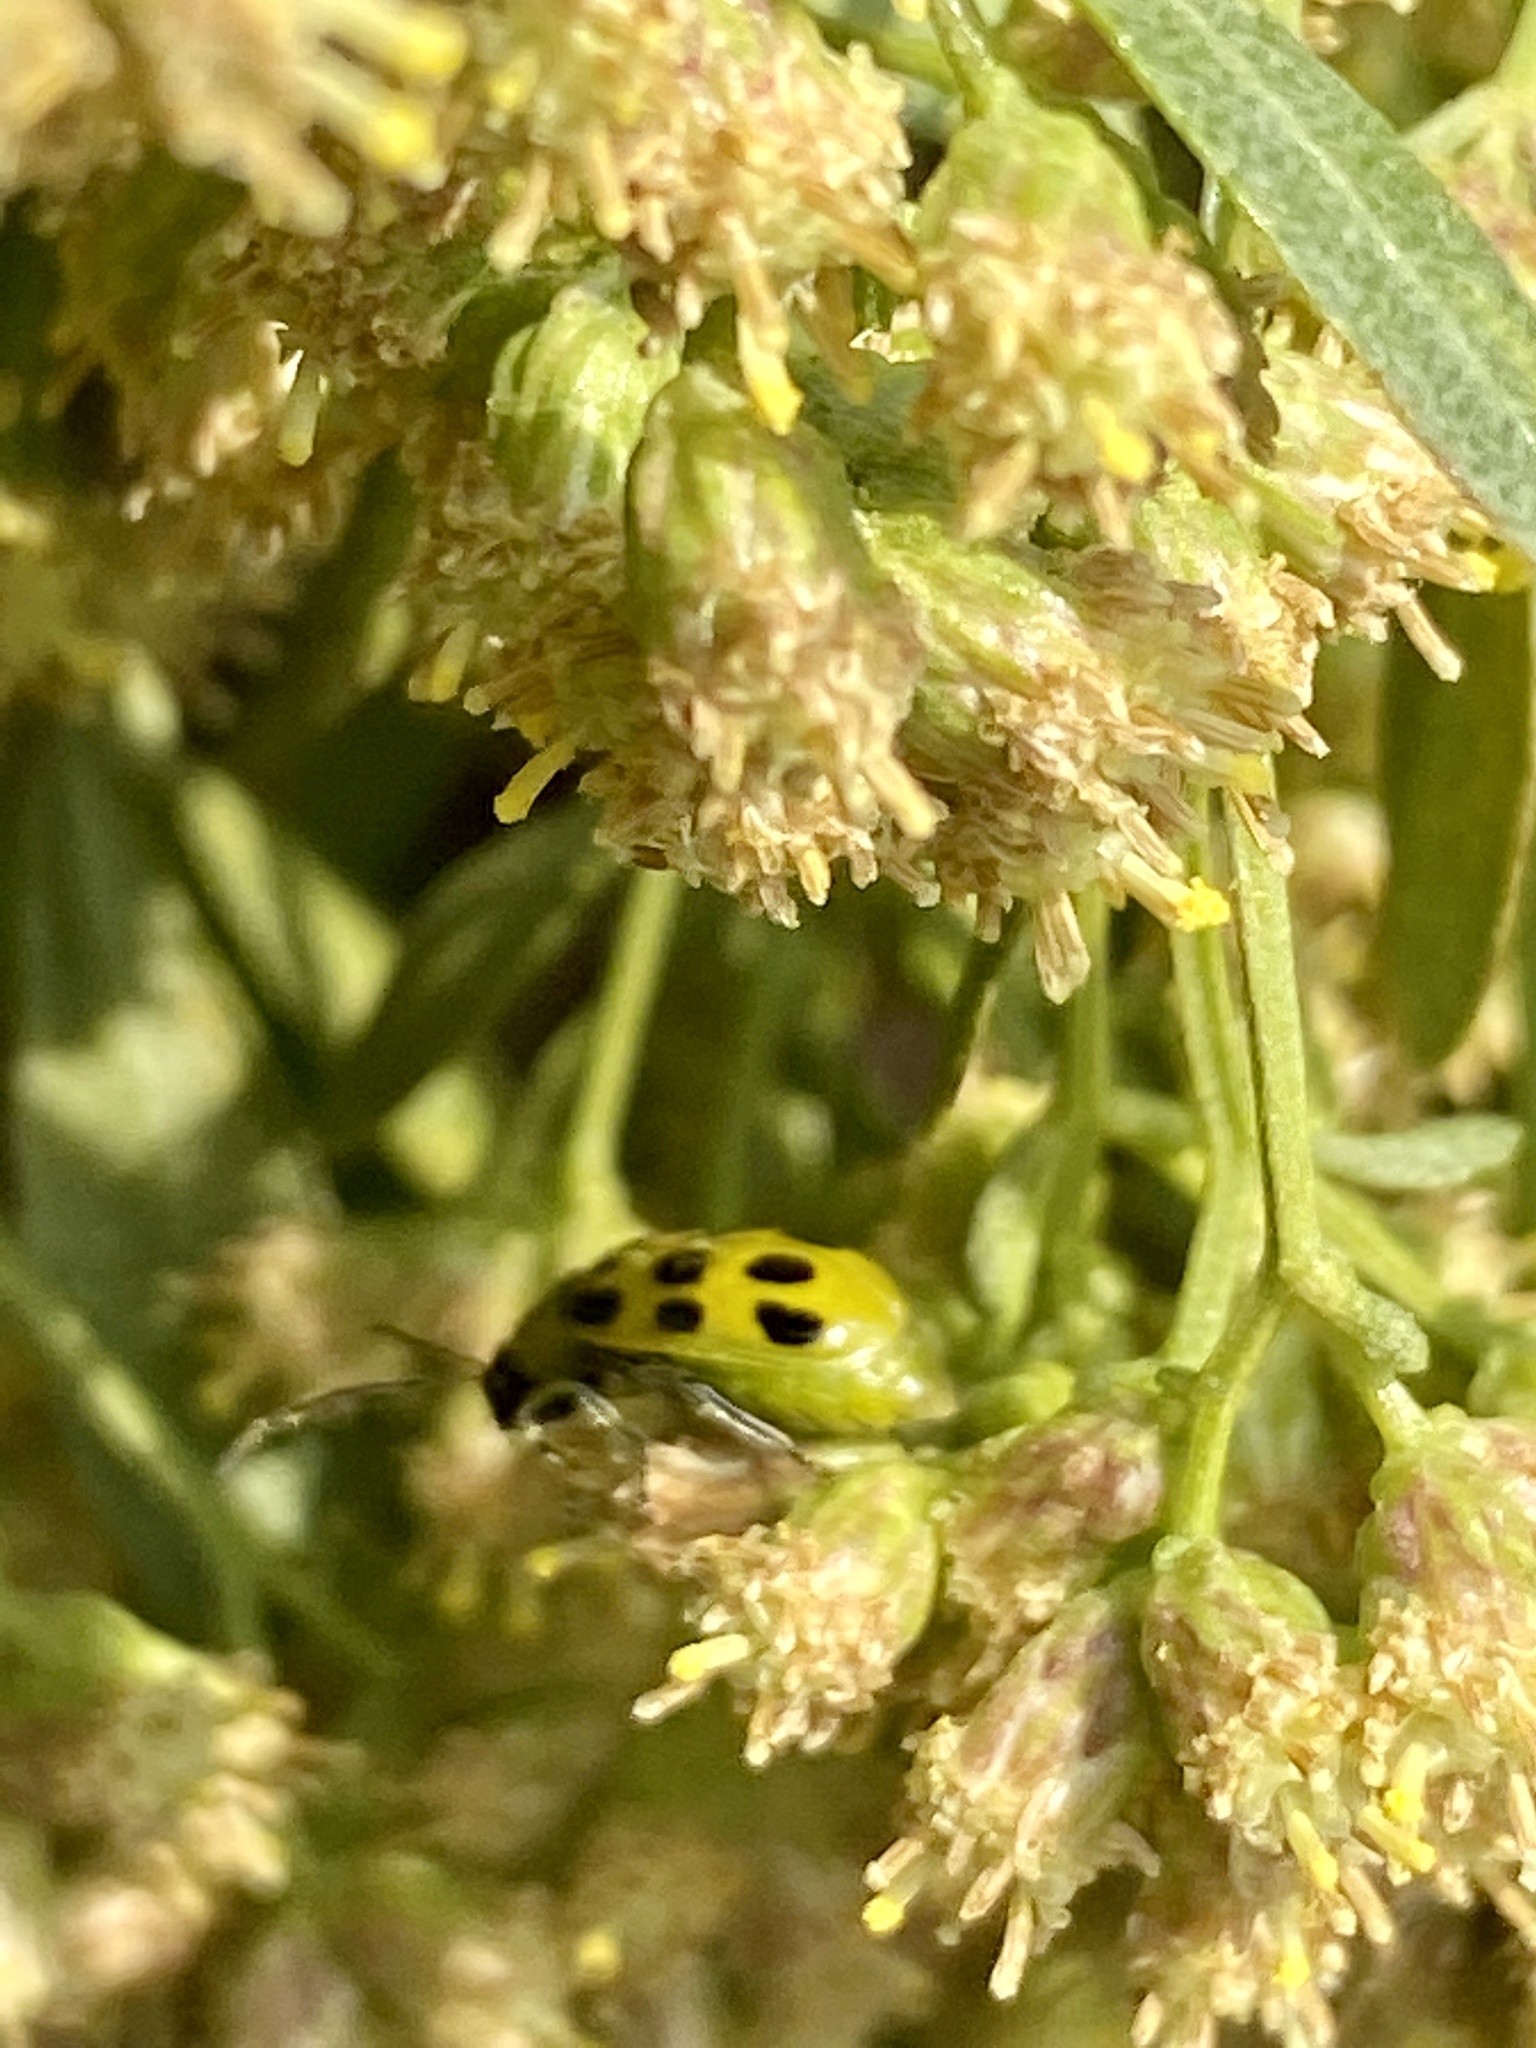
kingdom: Animalia
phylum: Arthropoda
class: Insecta
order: Coleoptera
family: Chrysomelidae
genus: Diabrotica
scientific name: Diabrotica undecimpunctata
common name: Spotted cucumber beetle
